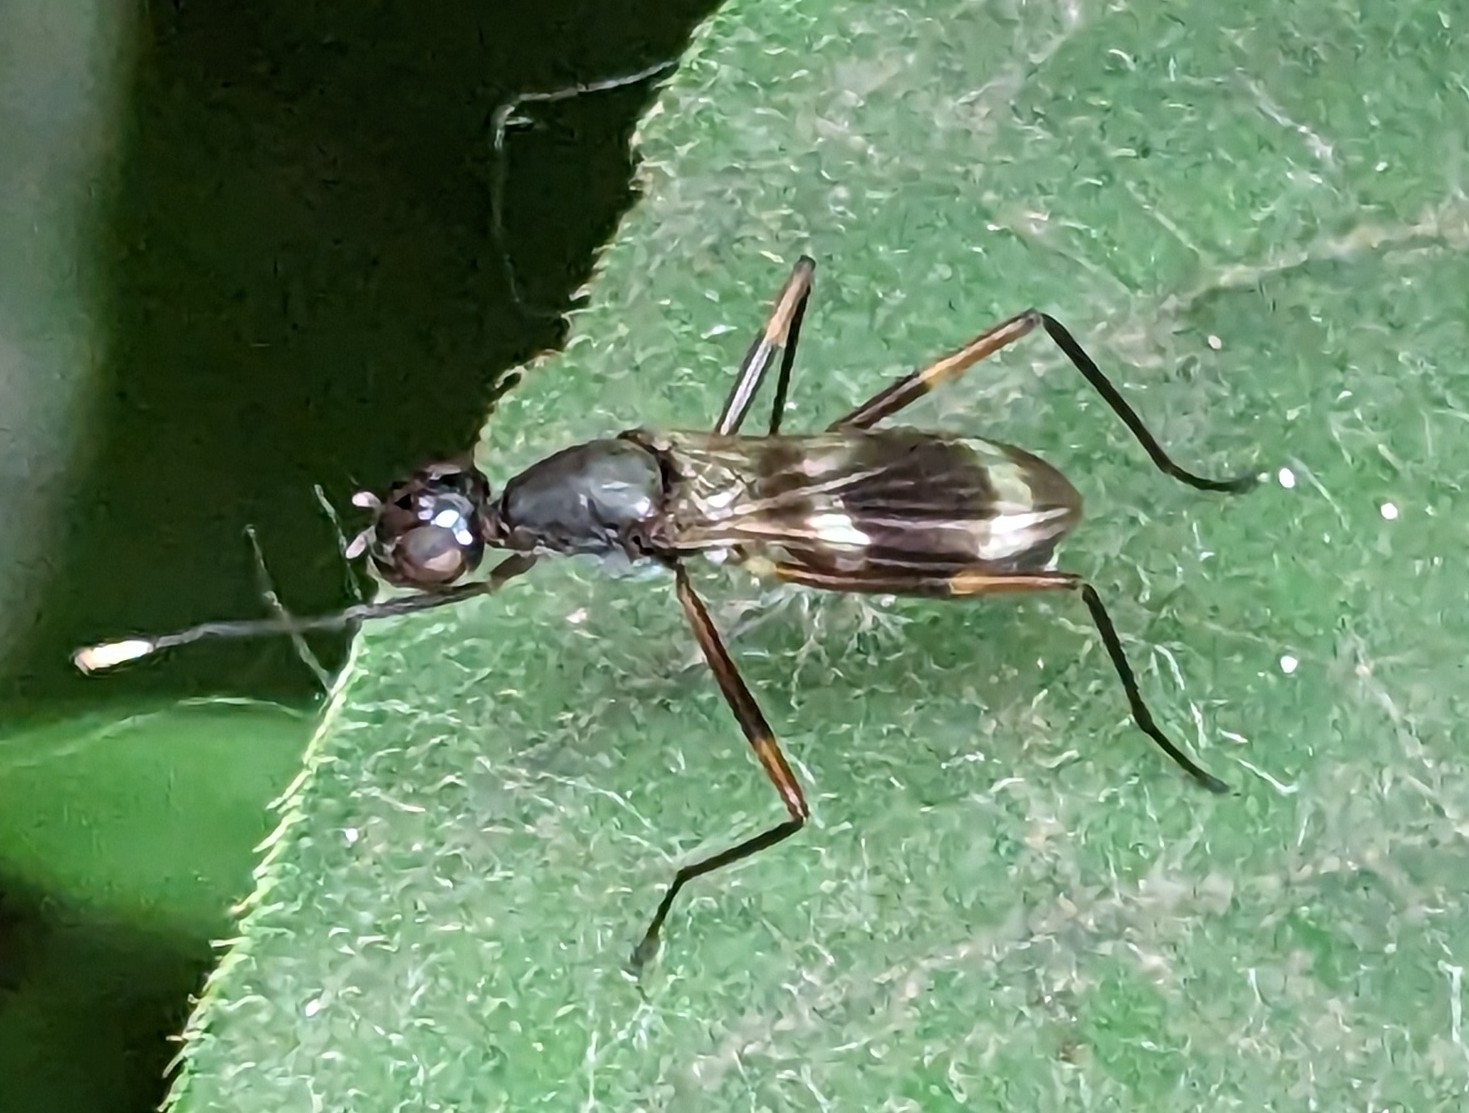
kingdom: Animalia
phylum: Arthropoda
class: Insecta
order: Diptera
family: Micropezidae
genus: Taeniaptera
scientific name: Taeniaptera trivittata
